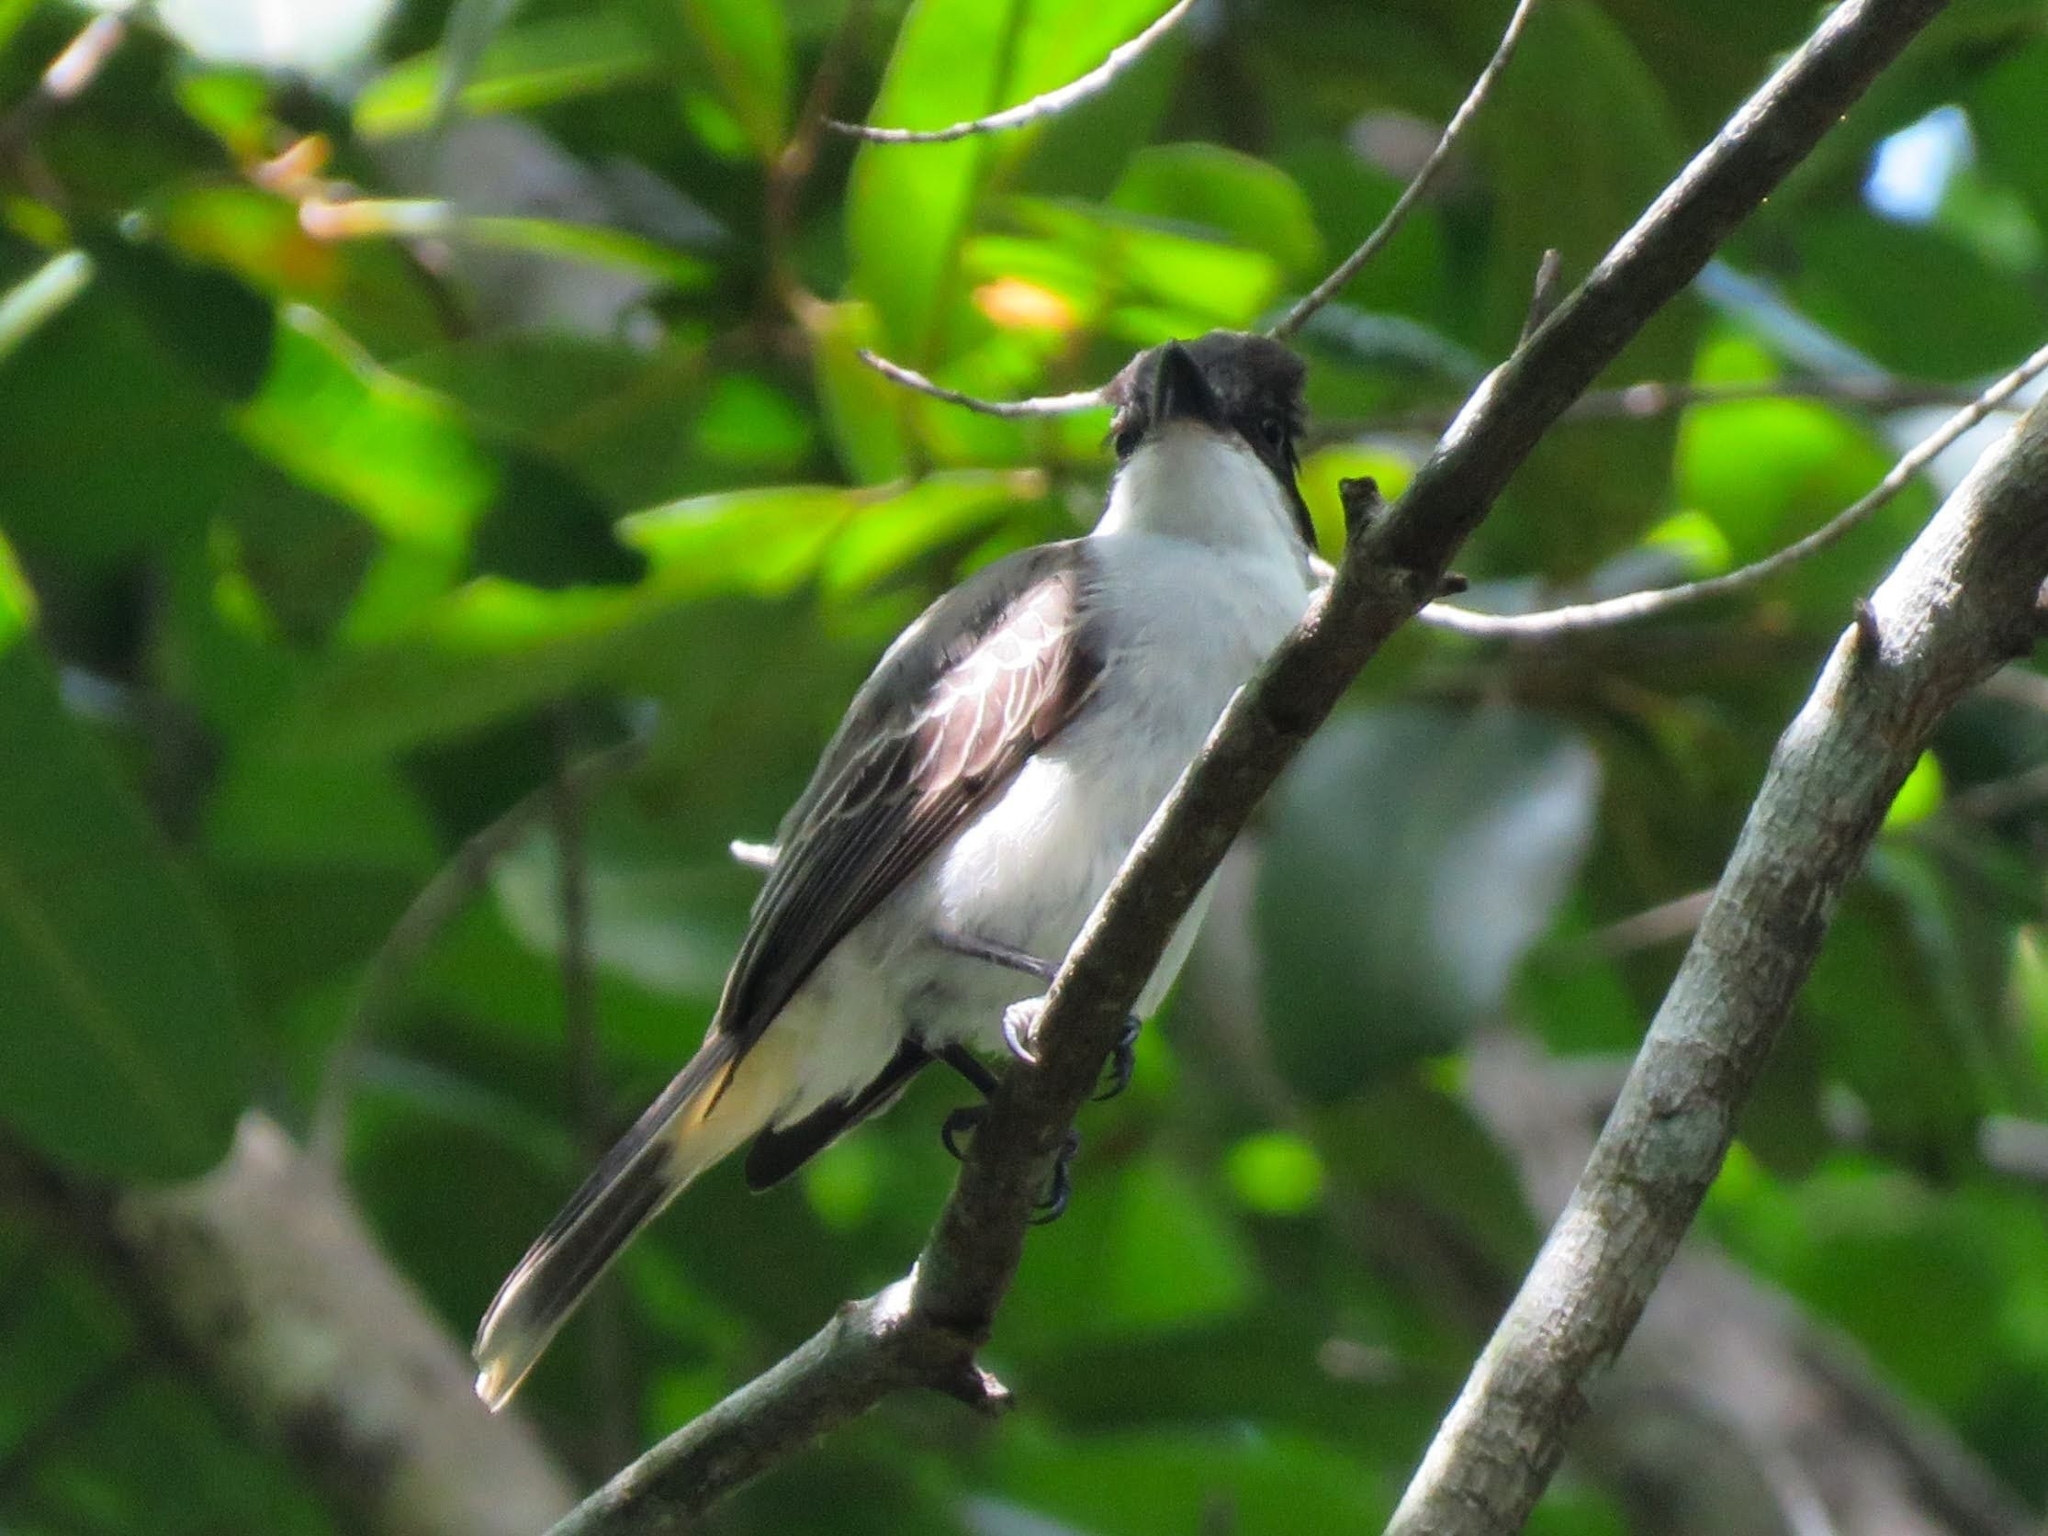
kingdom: Animalia
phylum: Chordata
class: Aves
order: Passeriformes
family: Tyrannidae
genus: Tyrannus
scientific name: Tyrannus caudifasciatus
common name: Loggerhead kingbird
